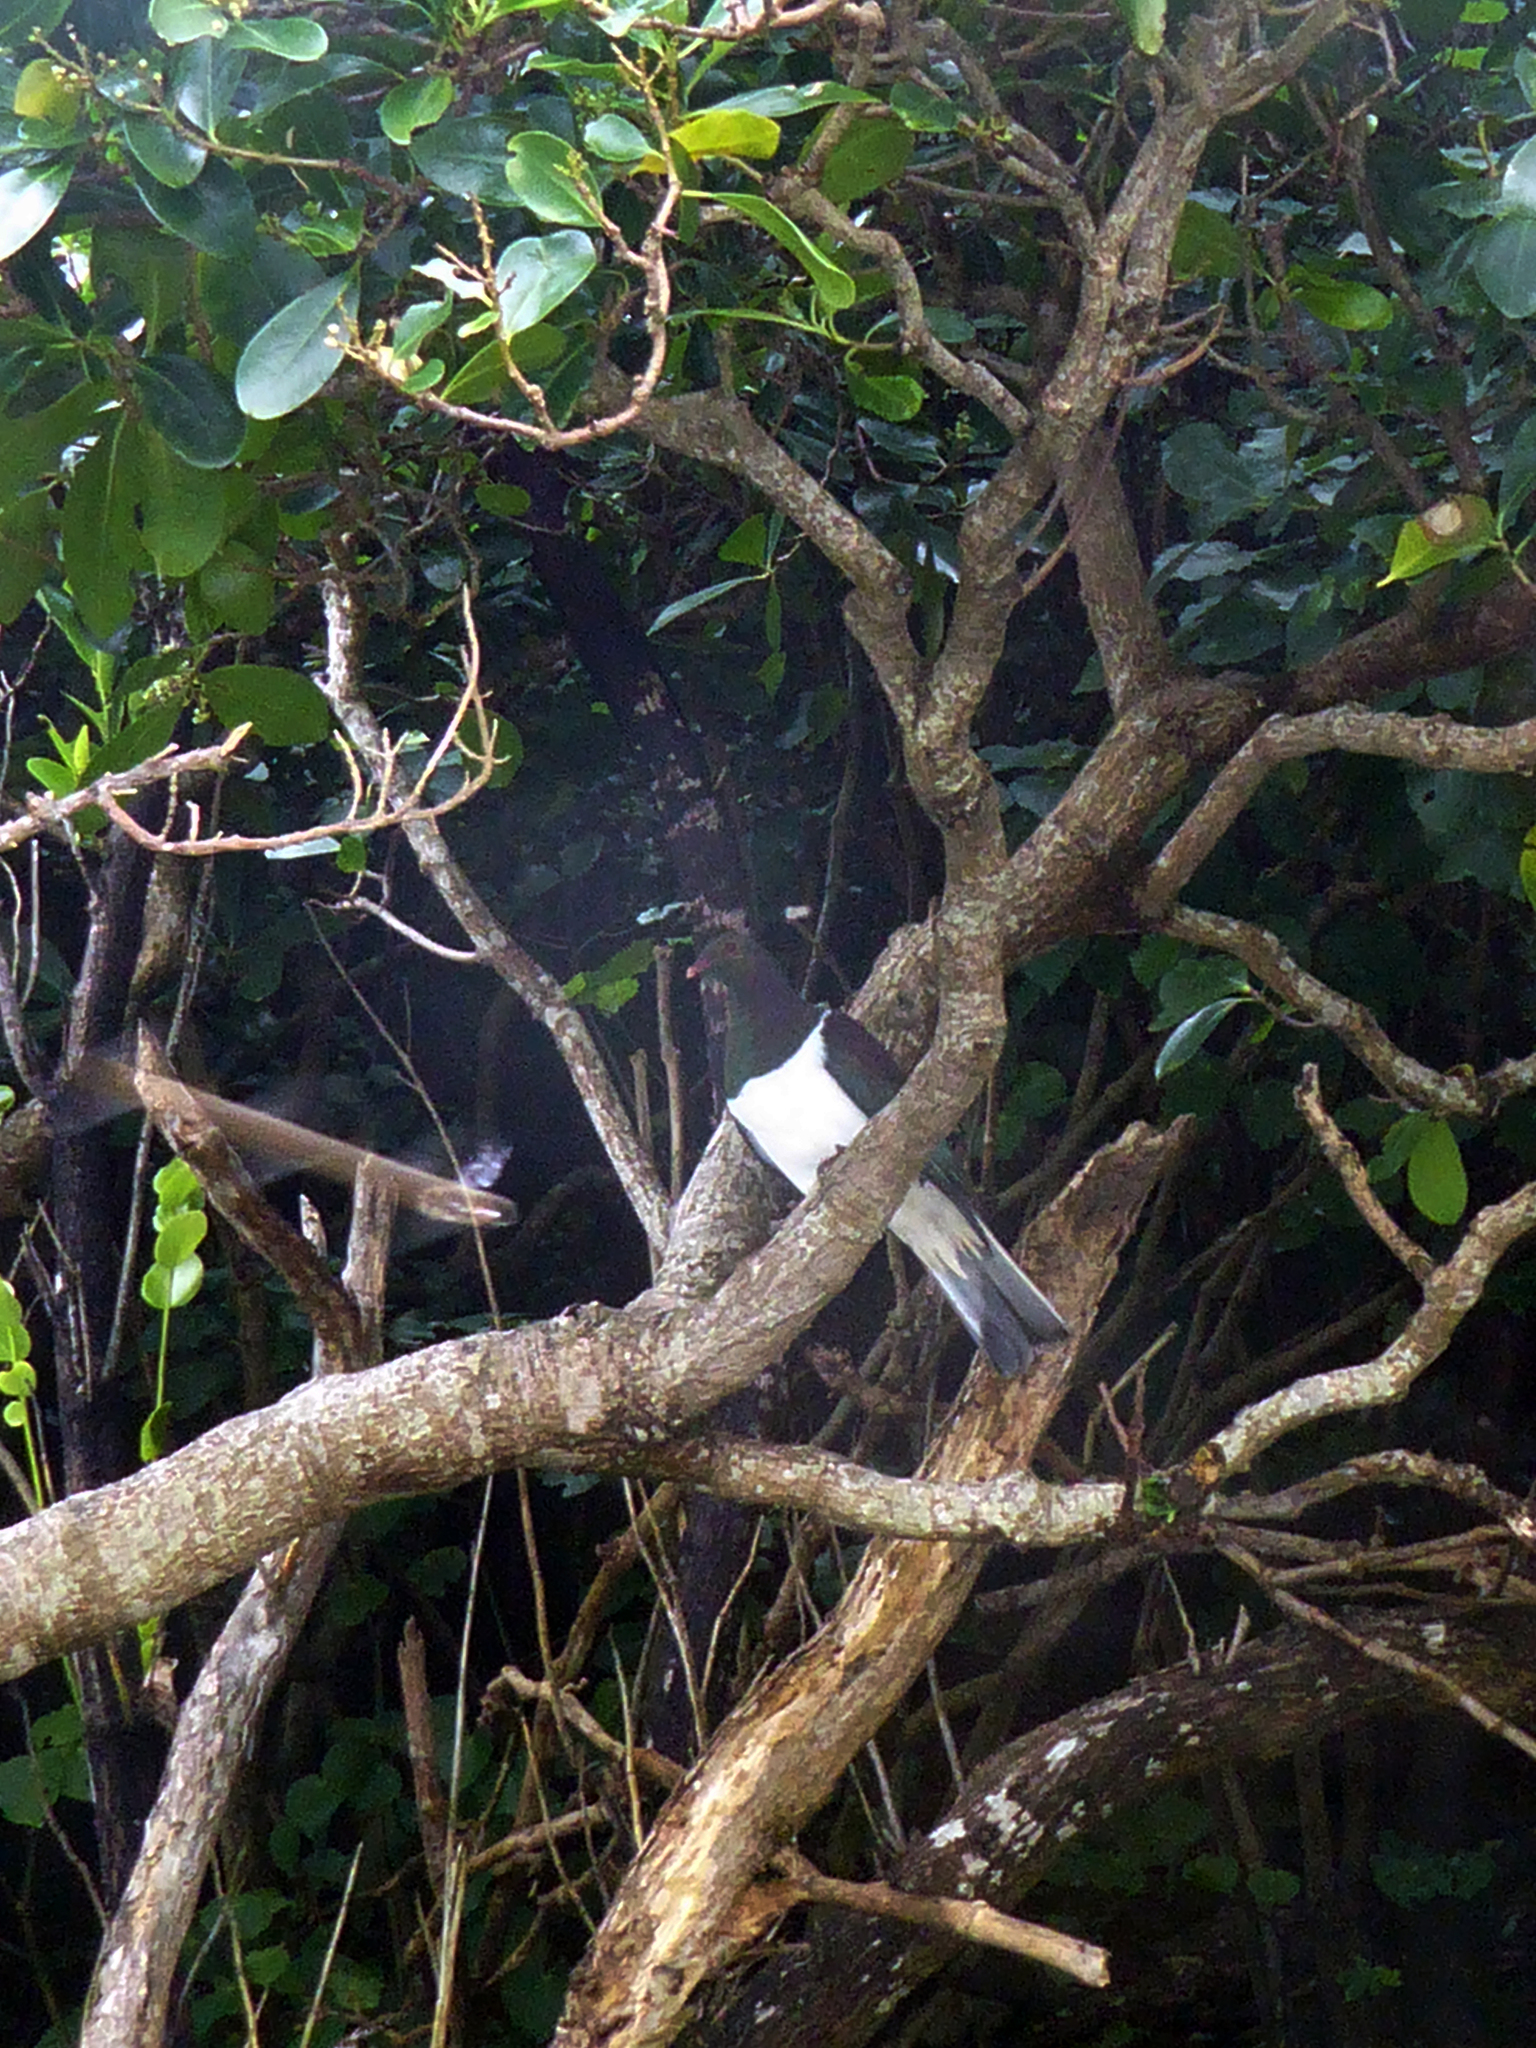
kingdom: Animalia
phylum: Chordata
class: Aves
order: Columbiformes
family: Columbidae
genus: Hemiphaga
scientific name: Hemiphaga novaeseelandiae
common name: New zealand pigeon
